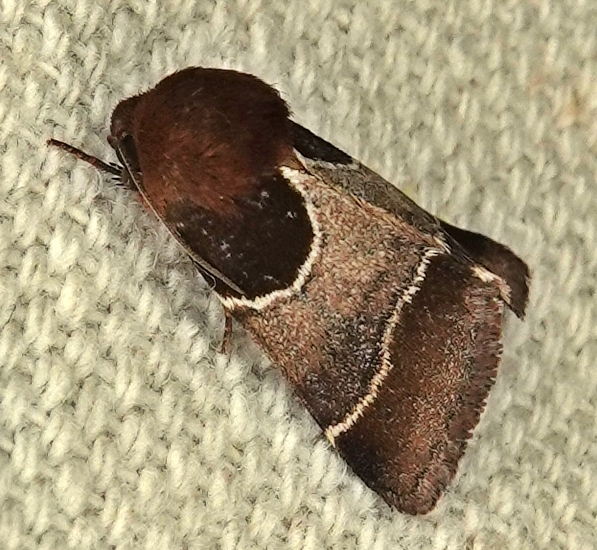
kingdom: Animalia
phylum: Arthropoda
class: Insecta
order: Lepidoptera
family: Noctuidae
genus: Schinia
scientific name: Schinia arcigera
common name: Arcigera flower moth
